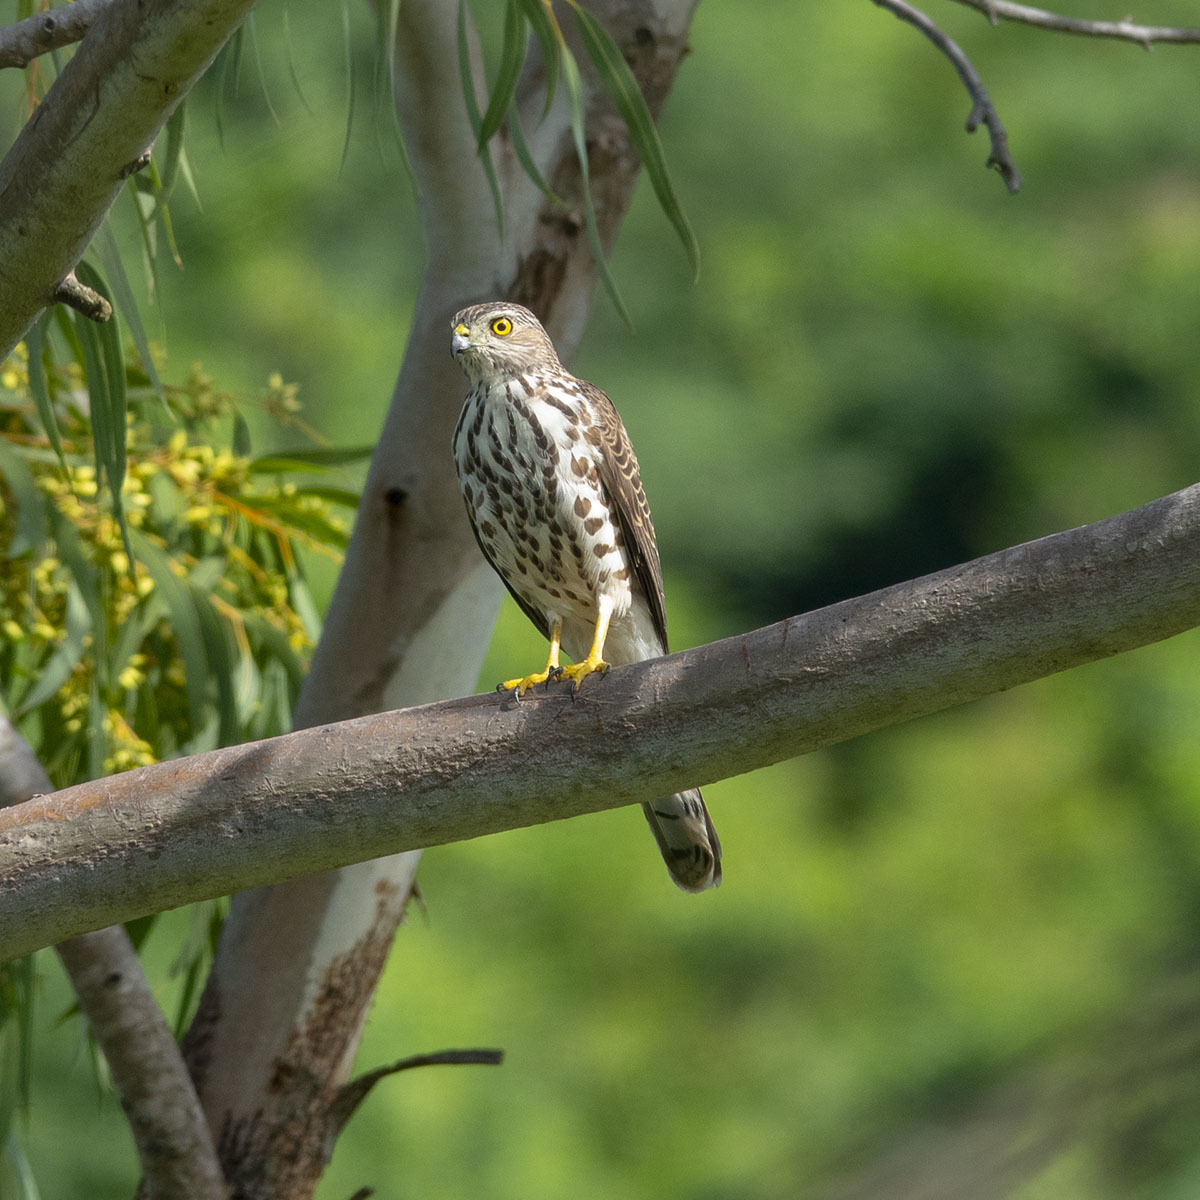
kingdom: Animalia
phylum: Chordata
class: Aves
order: Accipitriformes
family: Accipitridae
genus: Accipiter
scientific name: Accipiter badius
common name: Shikra
